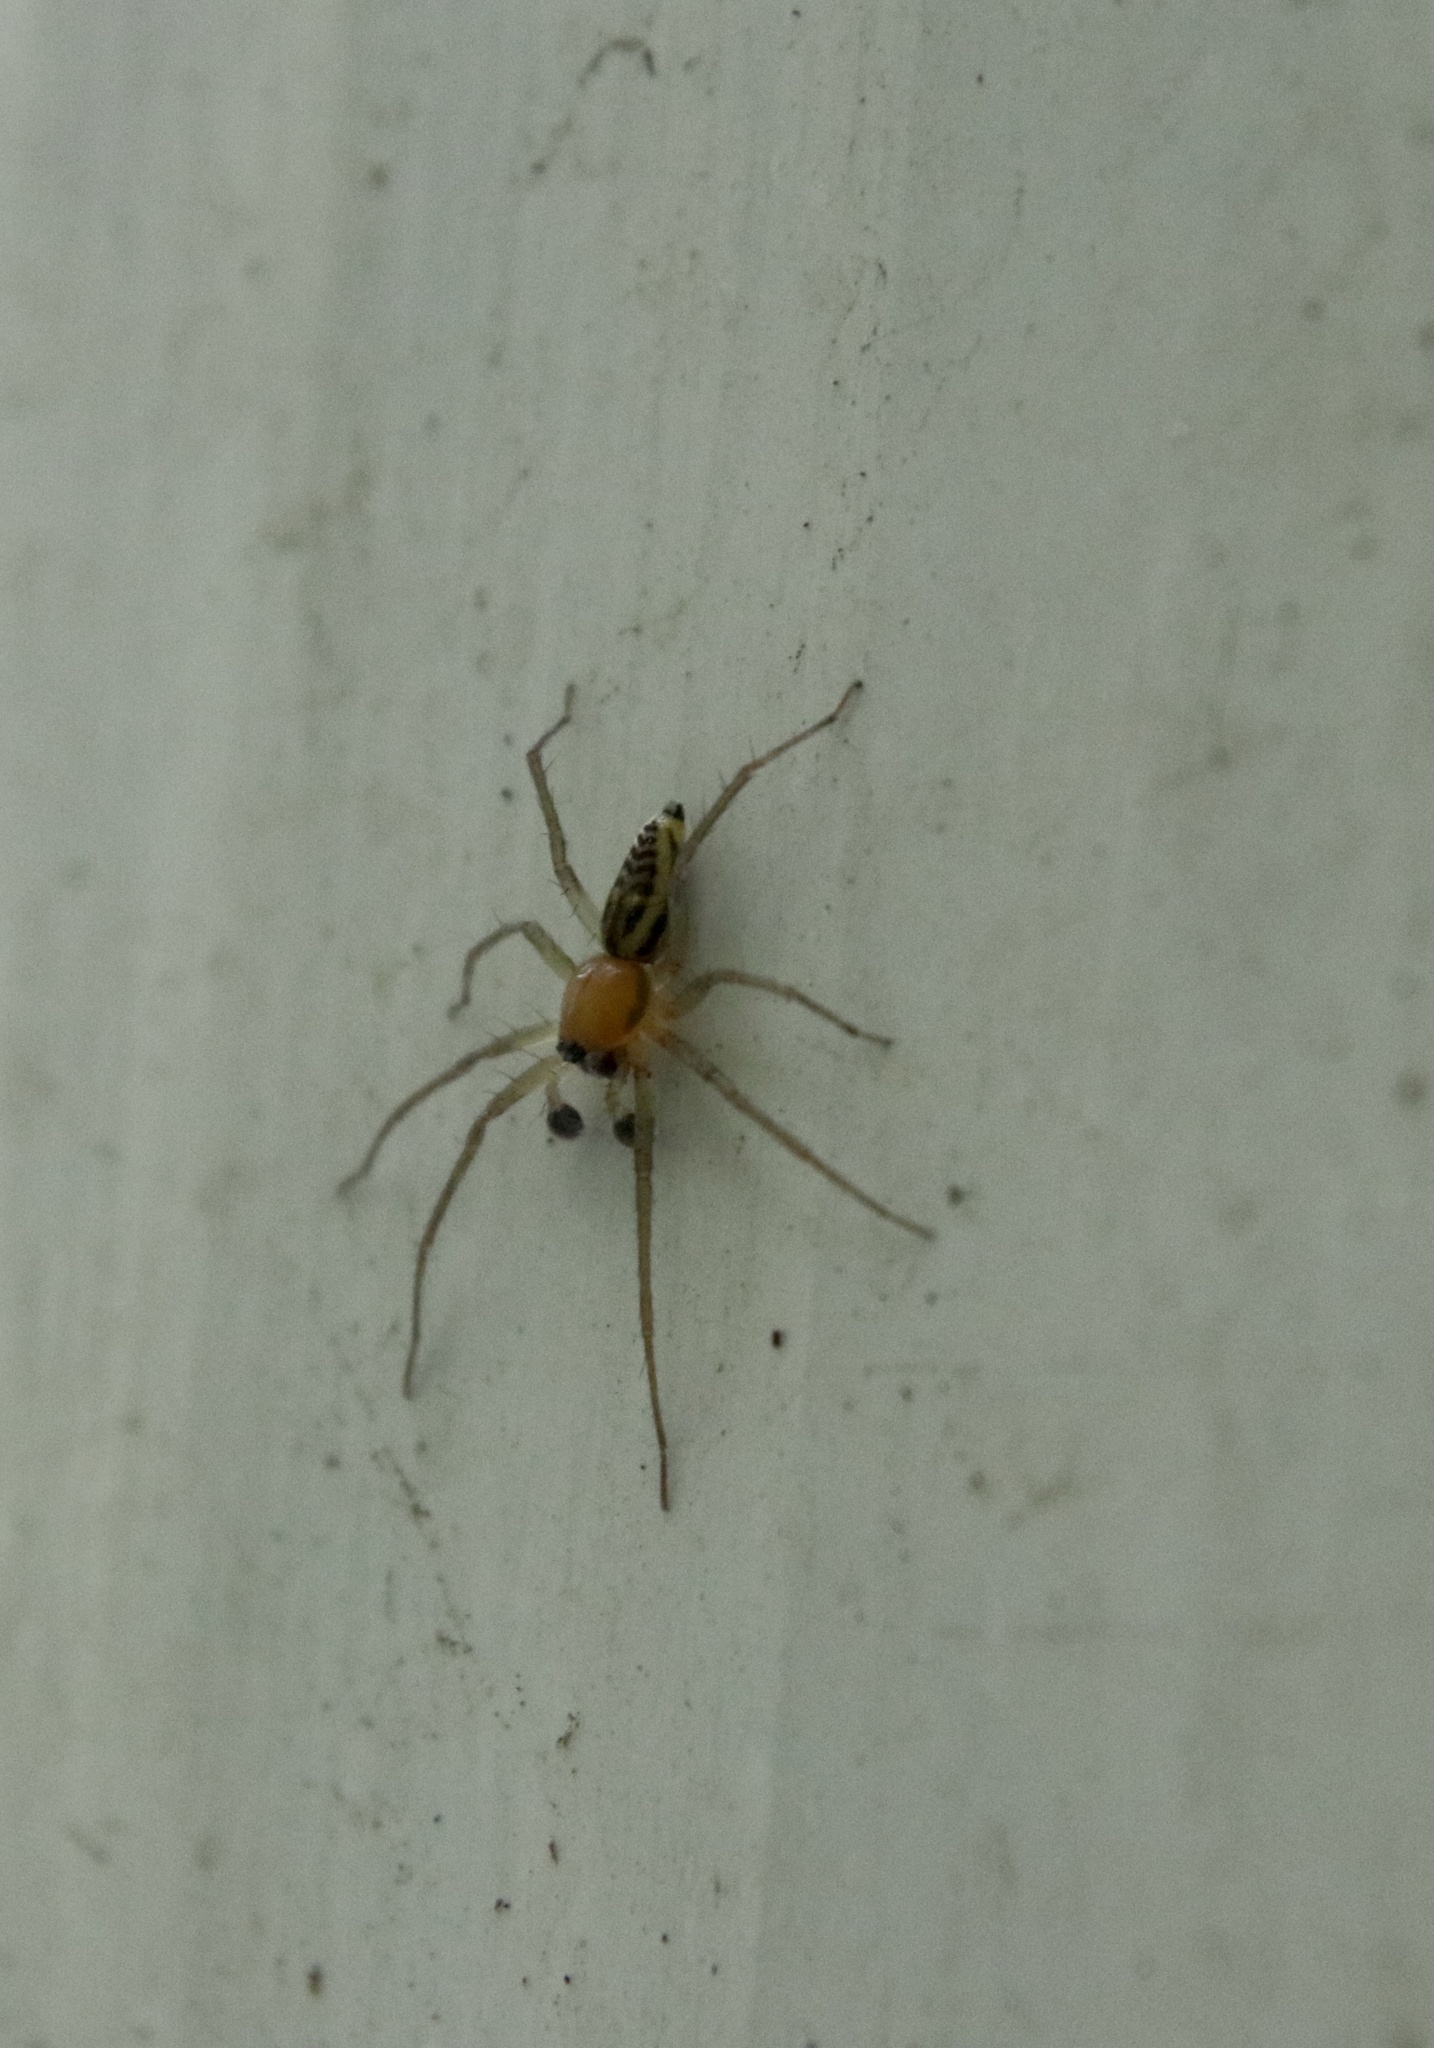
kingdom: Animalia
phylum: Arthropoda
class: Arachnida
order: Araneae
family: Anyphaenidae
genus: Gayenna
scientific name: Gayenna americana
